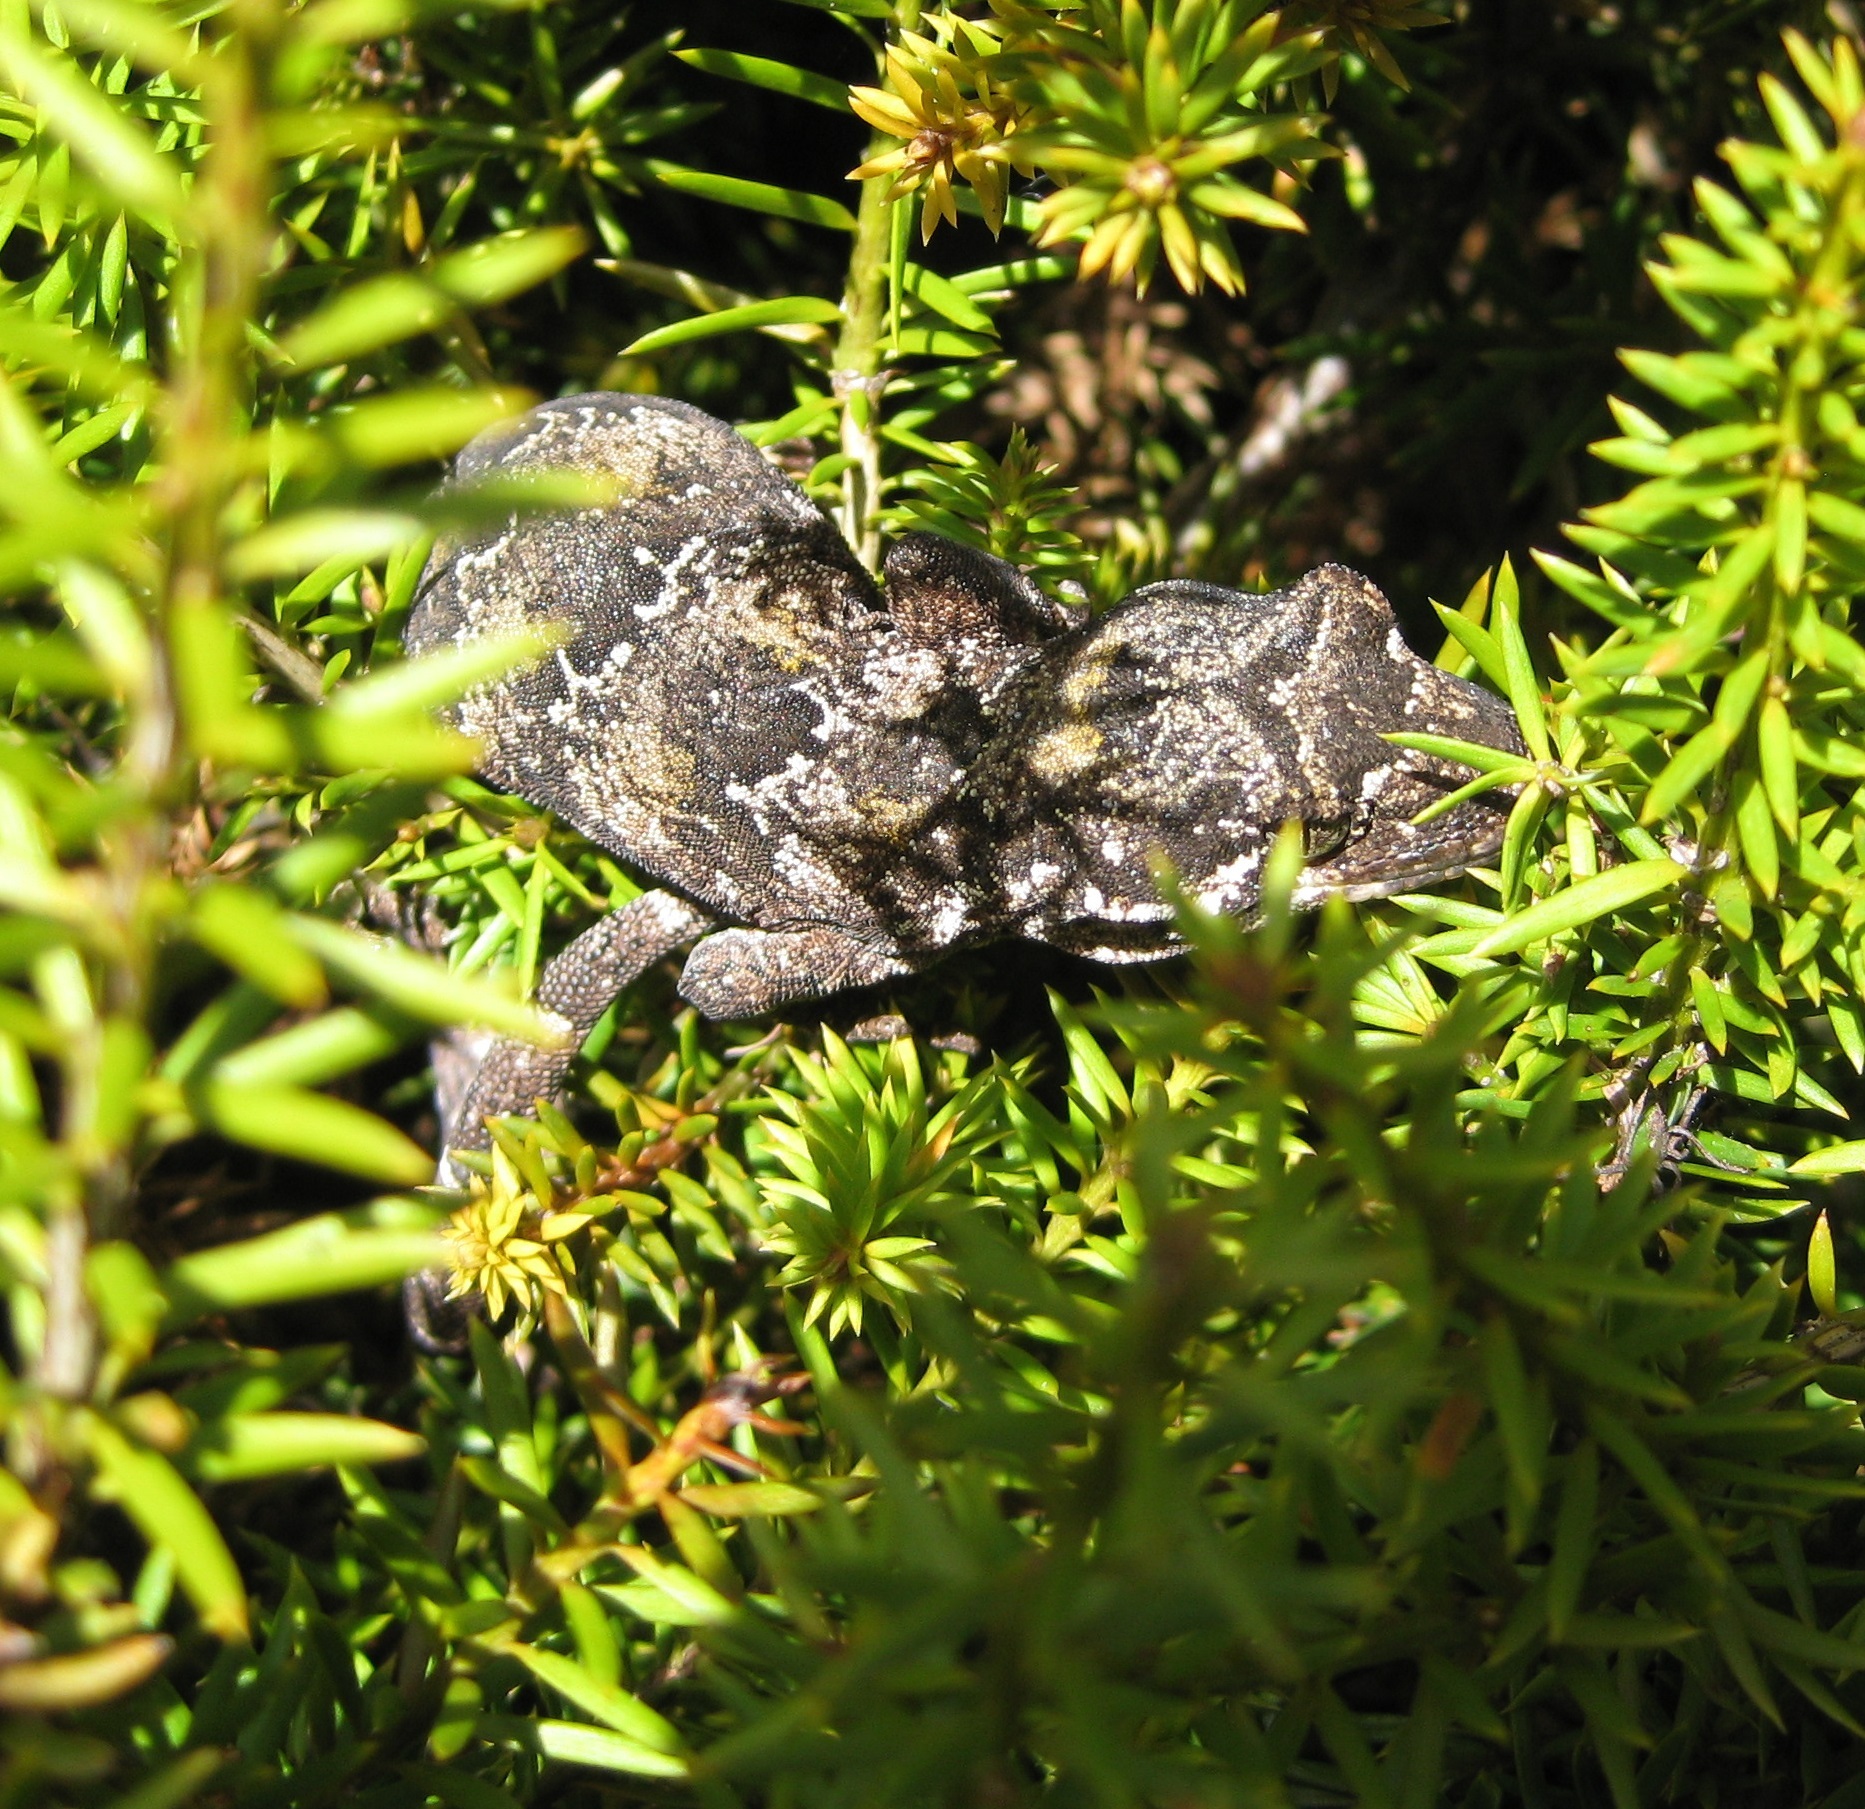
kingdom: Animalia
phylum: Chordata
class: Squamata
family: Diplodactylidae
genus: Mokopirirakau
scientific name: Mokopirirakau
